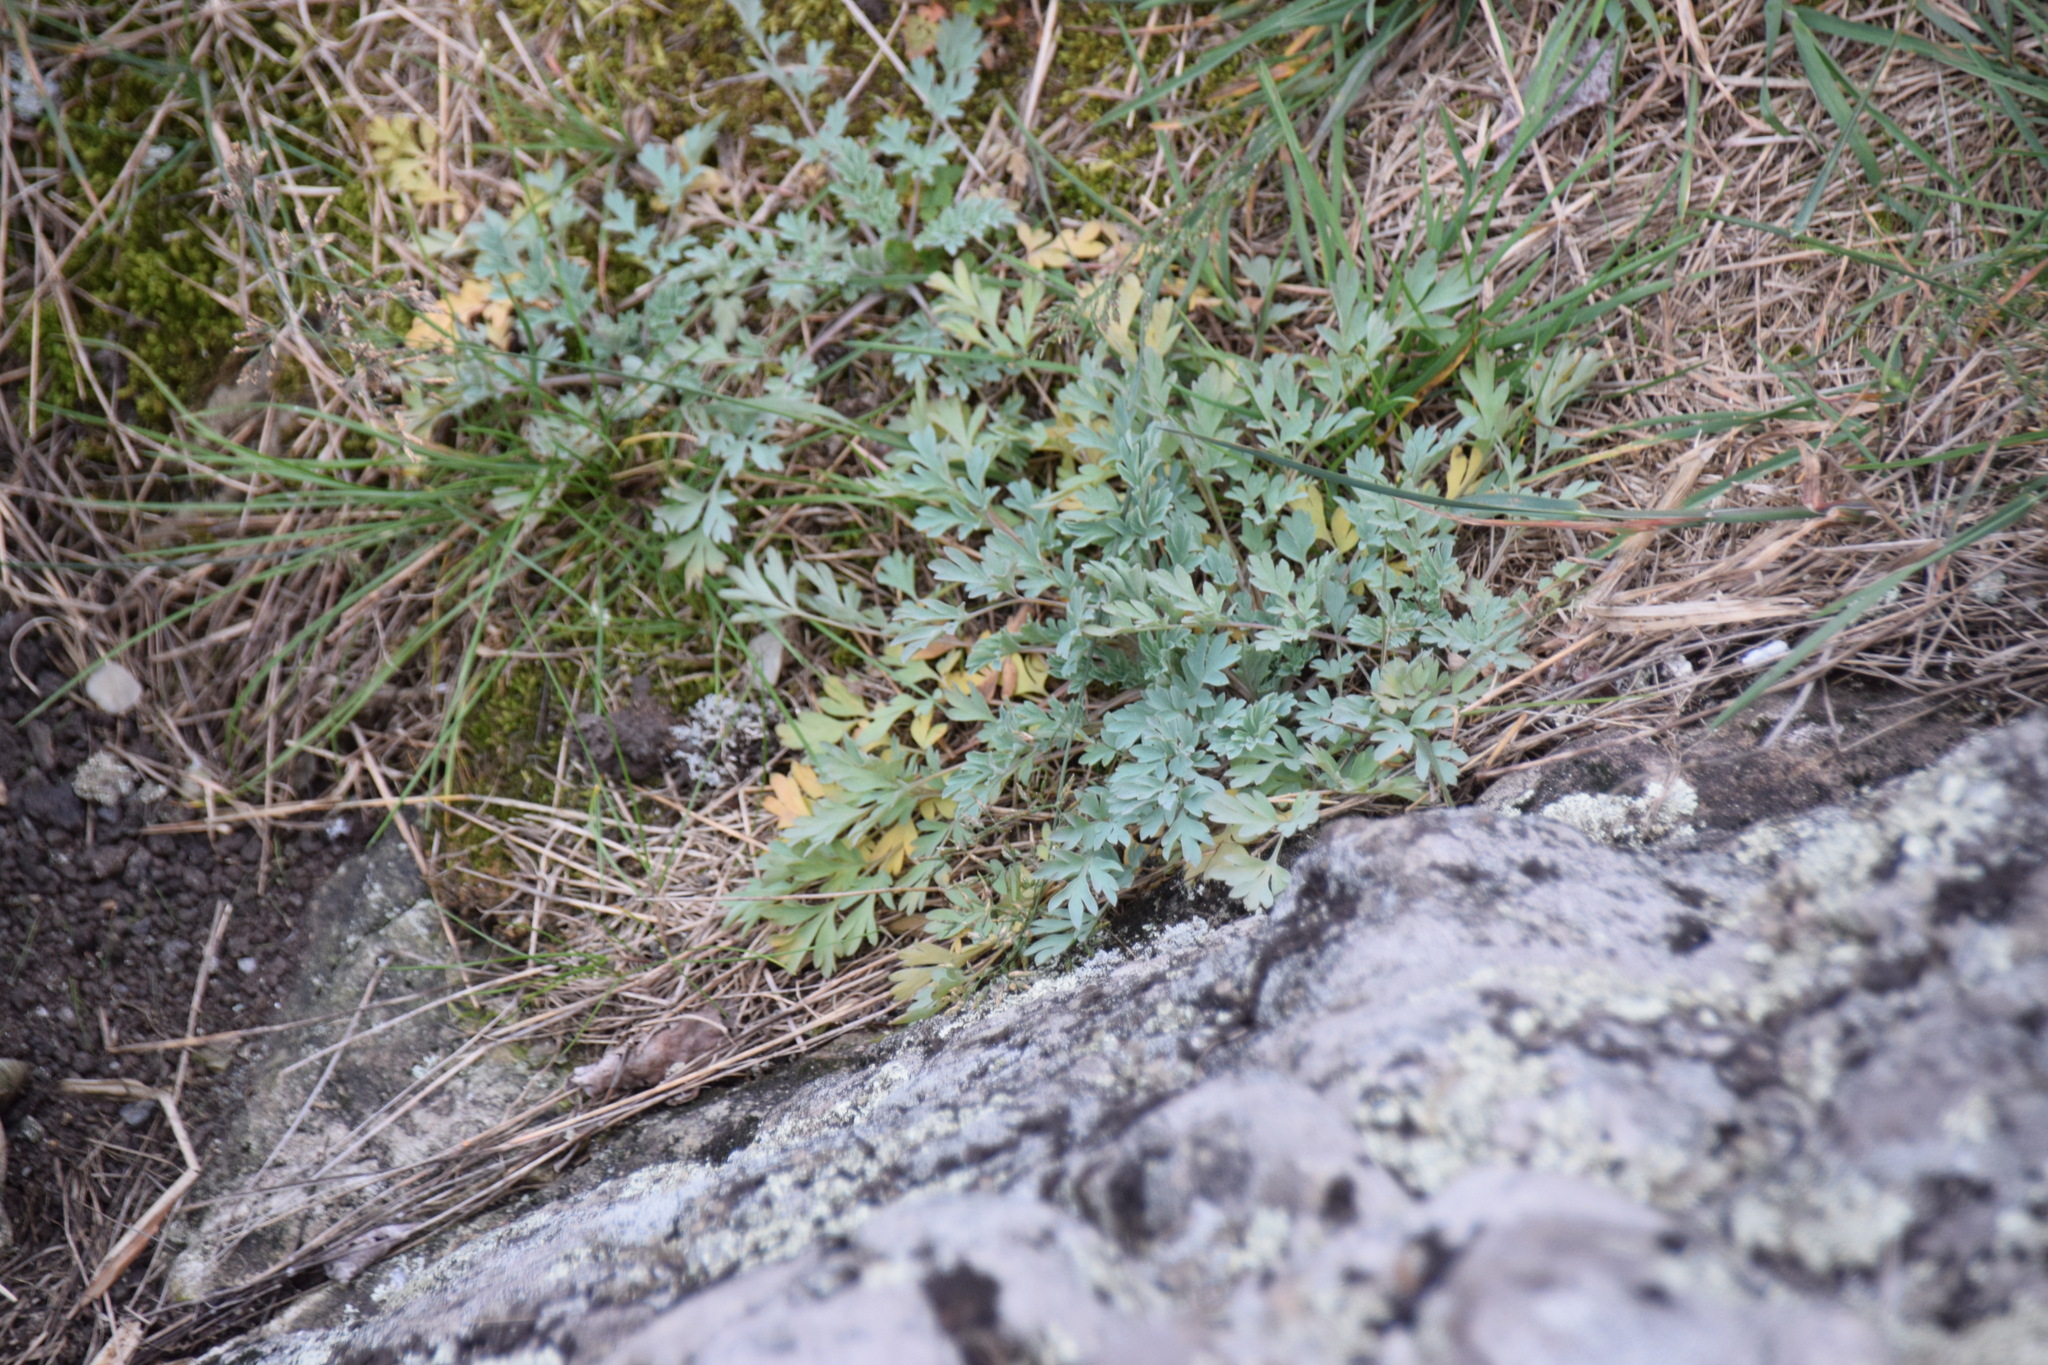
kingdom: Plantae
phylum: Tracheophyta
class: Magnoliopsida
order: Ranunculales
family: Papaveraceae
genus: Capnoides
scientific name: Capnoides sempervirens
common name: Rock harlequin
